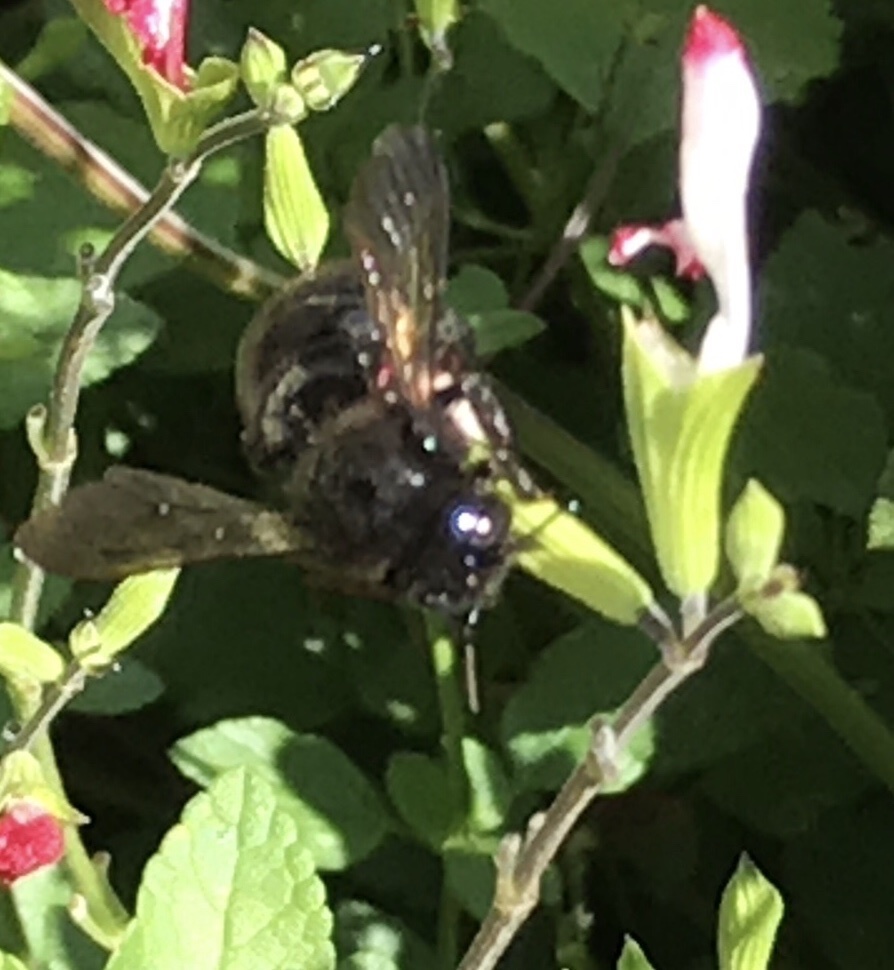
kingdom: Animalia
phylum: Arthropoda
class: Insecta
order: Hymenoptera
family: Apidae
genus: Xylocopa
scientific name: Xylocopa tabaniformis
